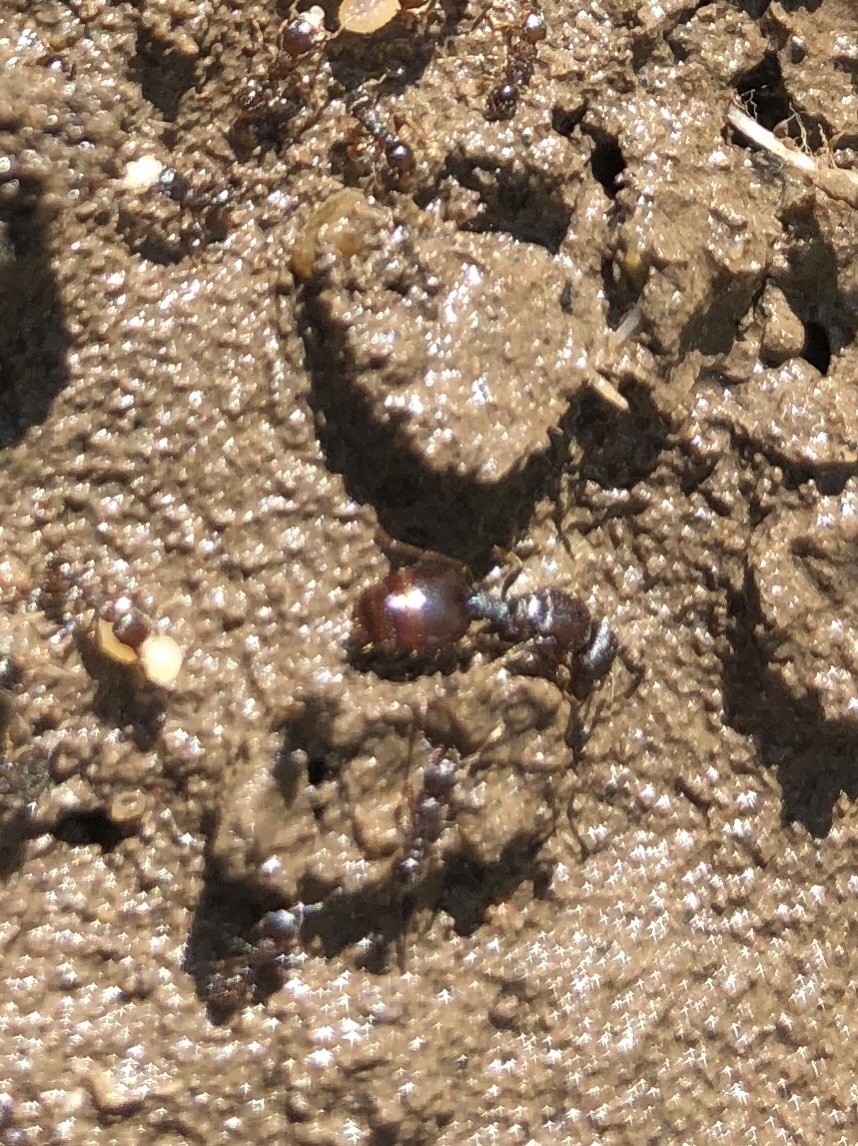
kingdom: Animalia
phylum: Arthropoda
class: Insecta
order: Hymenoptera
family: Formicidae
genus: Tetramorium
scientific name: Tetramorium immigrans
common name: Pavement ant
